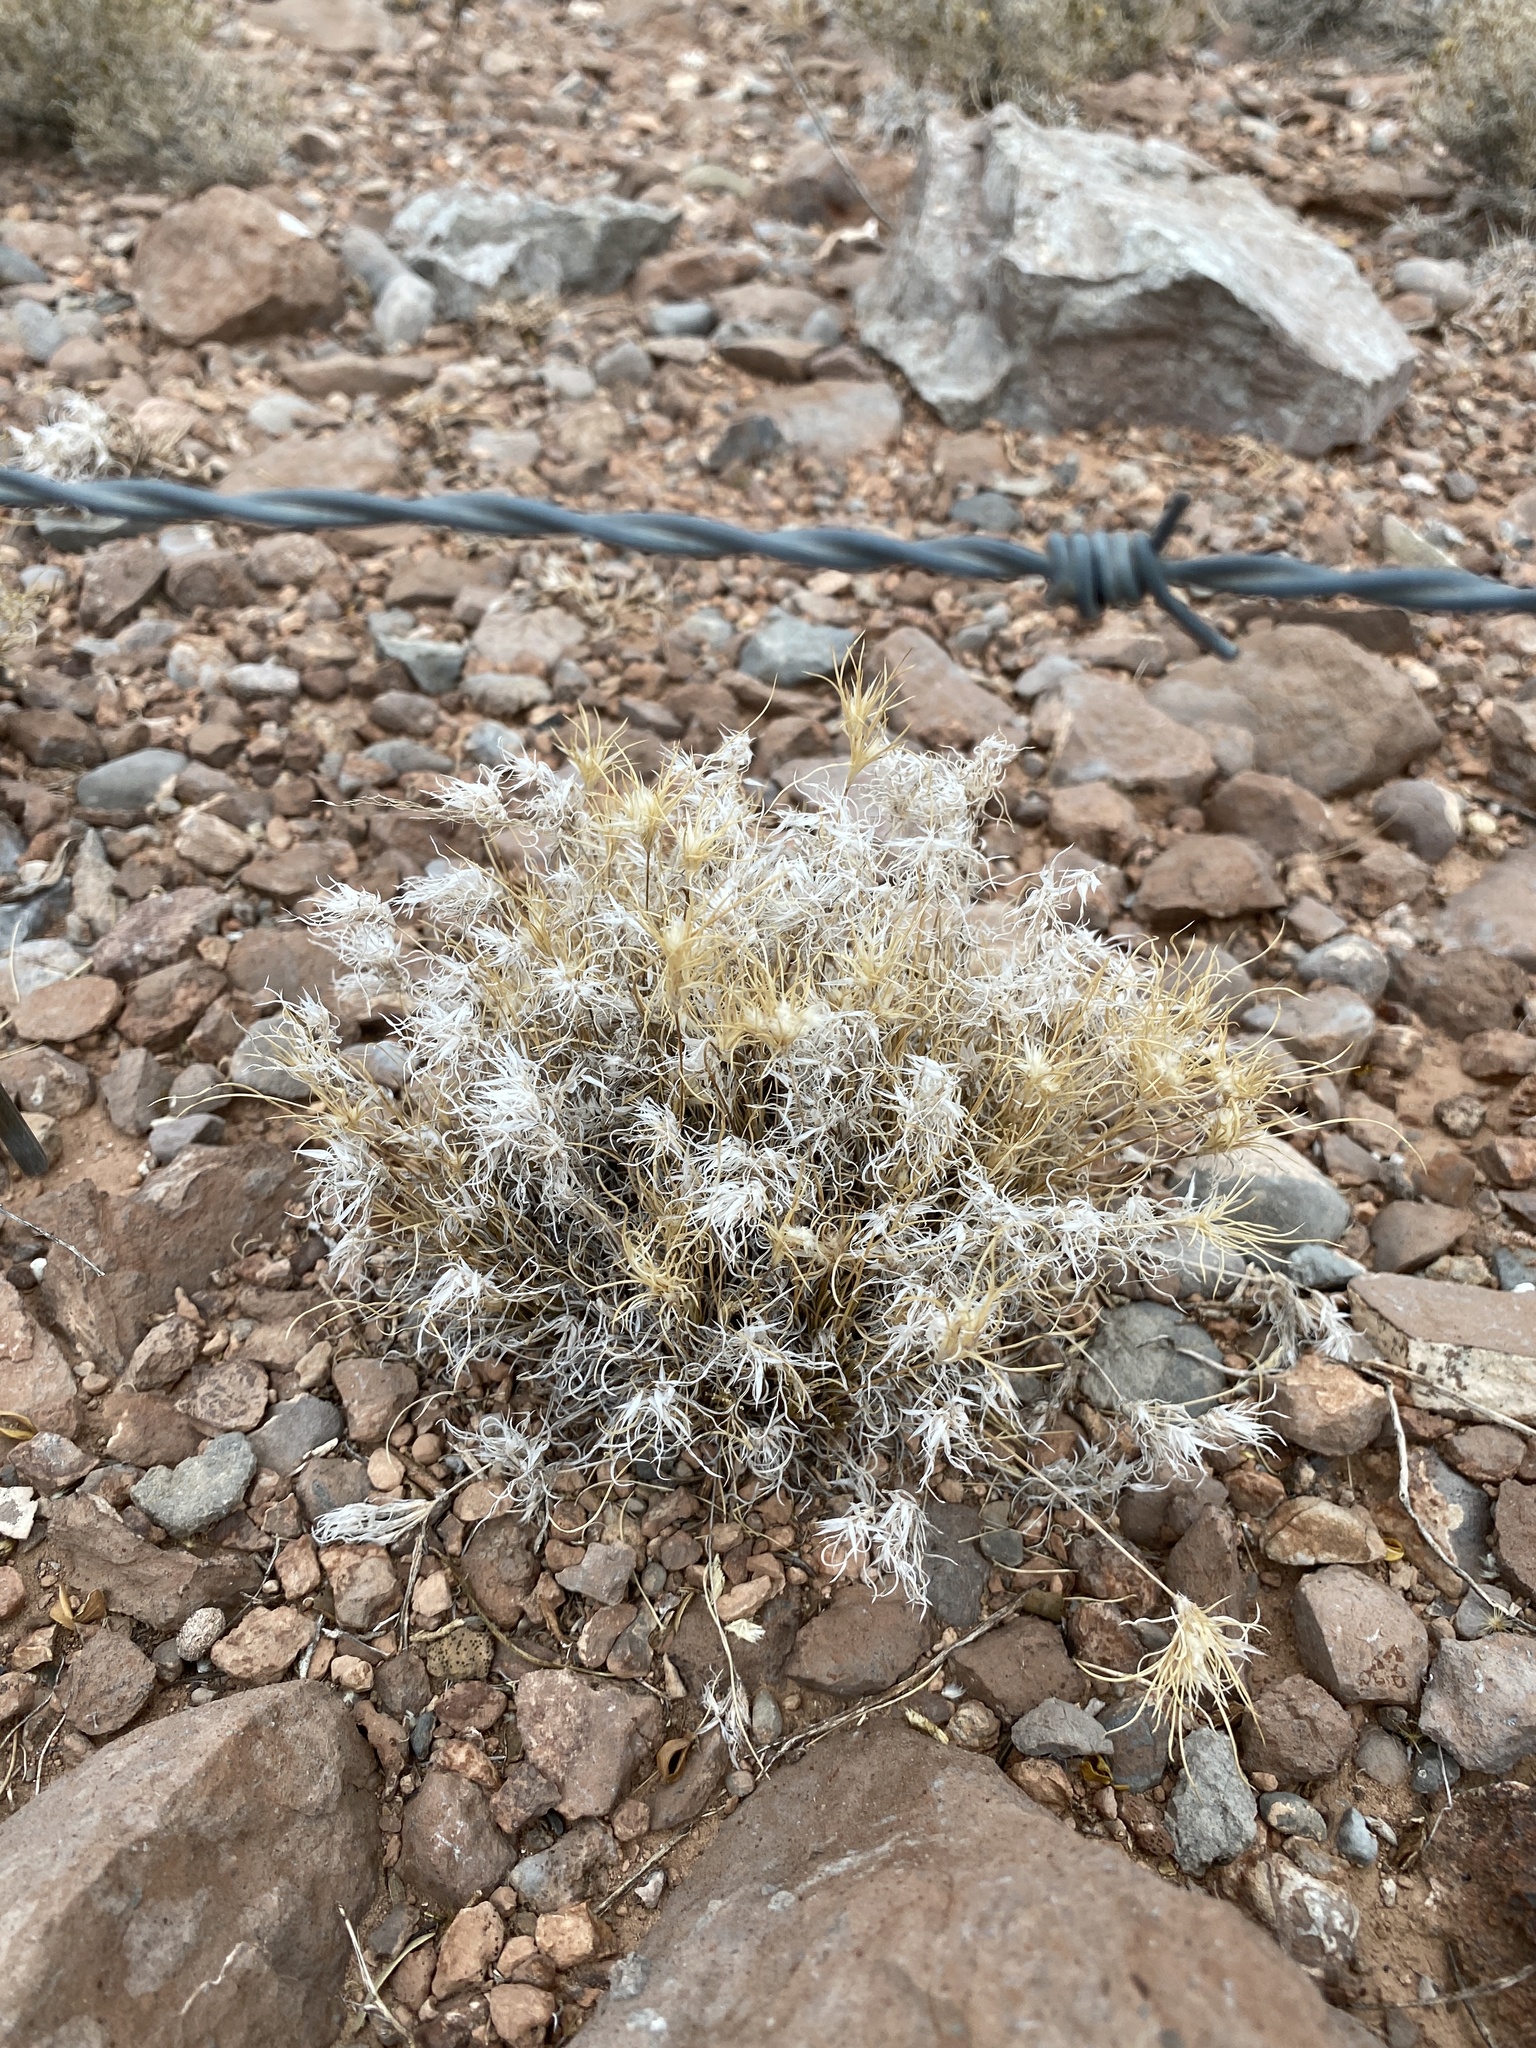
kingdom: Plantae
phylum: Tracheophyta
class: Liliopsida
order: Poales
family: Poaceae
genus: Dasyochloa
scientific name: Dasyochloa pulchella
